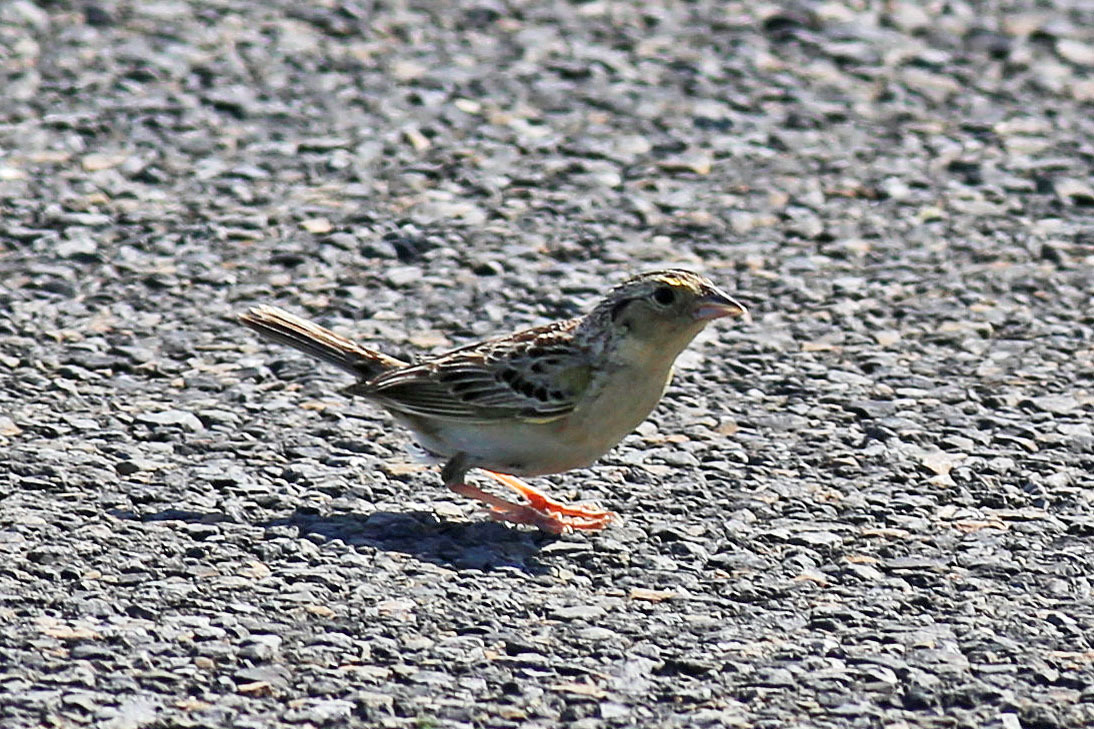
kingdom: Animalia
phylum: Chordata
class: Aves
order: Passeriformes
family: Passerellidae
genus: Ammodramus
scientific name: Ammodramus savannarum
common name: Grasshopper sparrow
